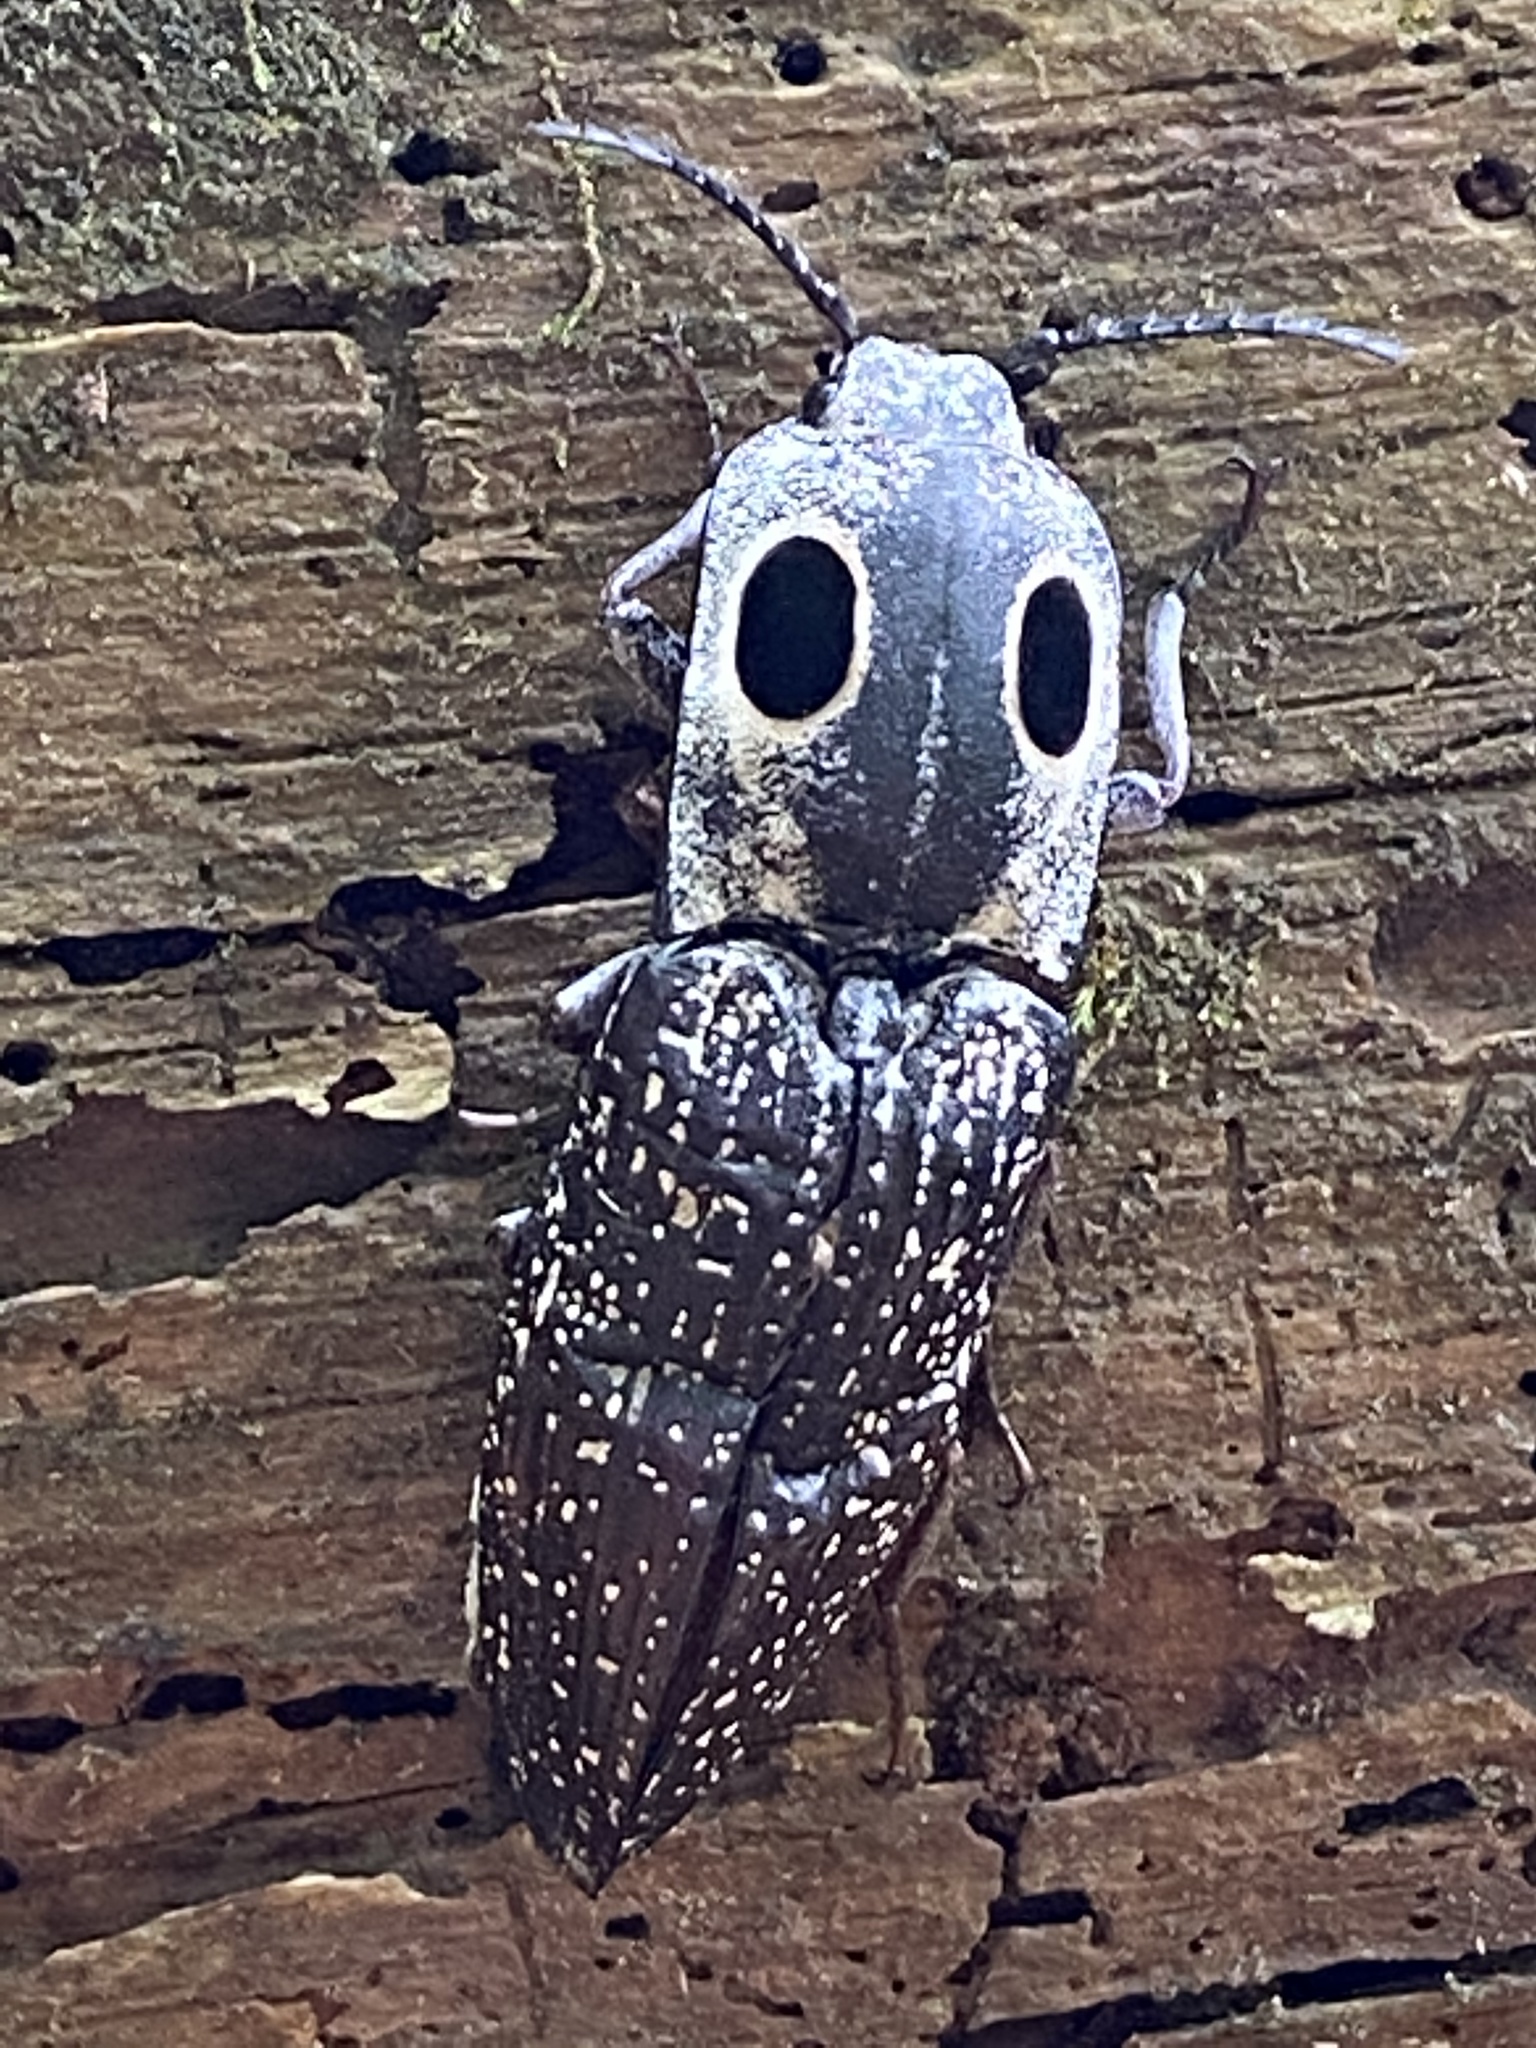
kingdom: Animalia
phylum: Arthropoda
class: Insecta
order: Coleoptera
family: Elateridae
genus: Alaus
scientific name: Alaus oculatus
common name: Eastern eyed click beetle
